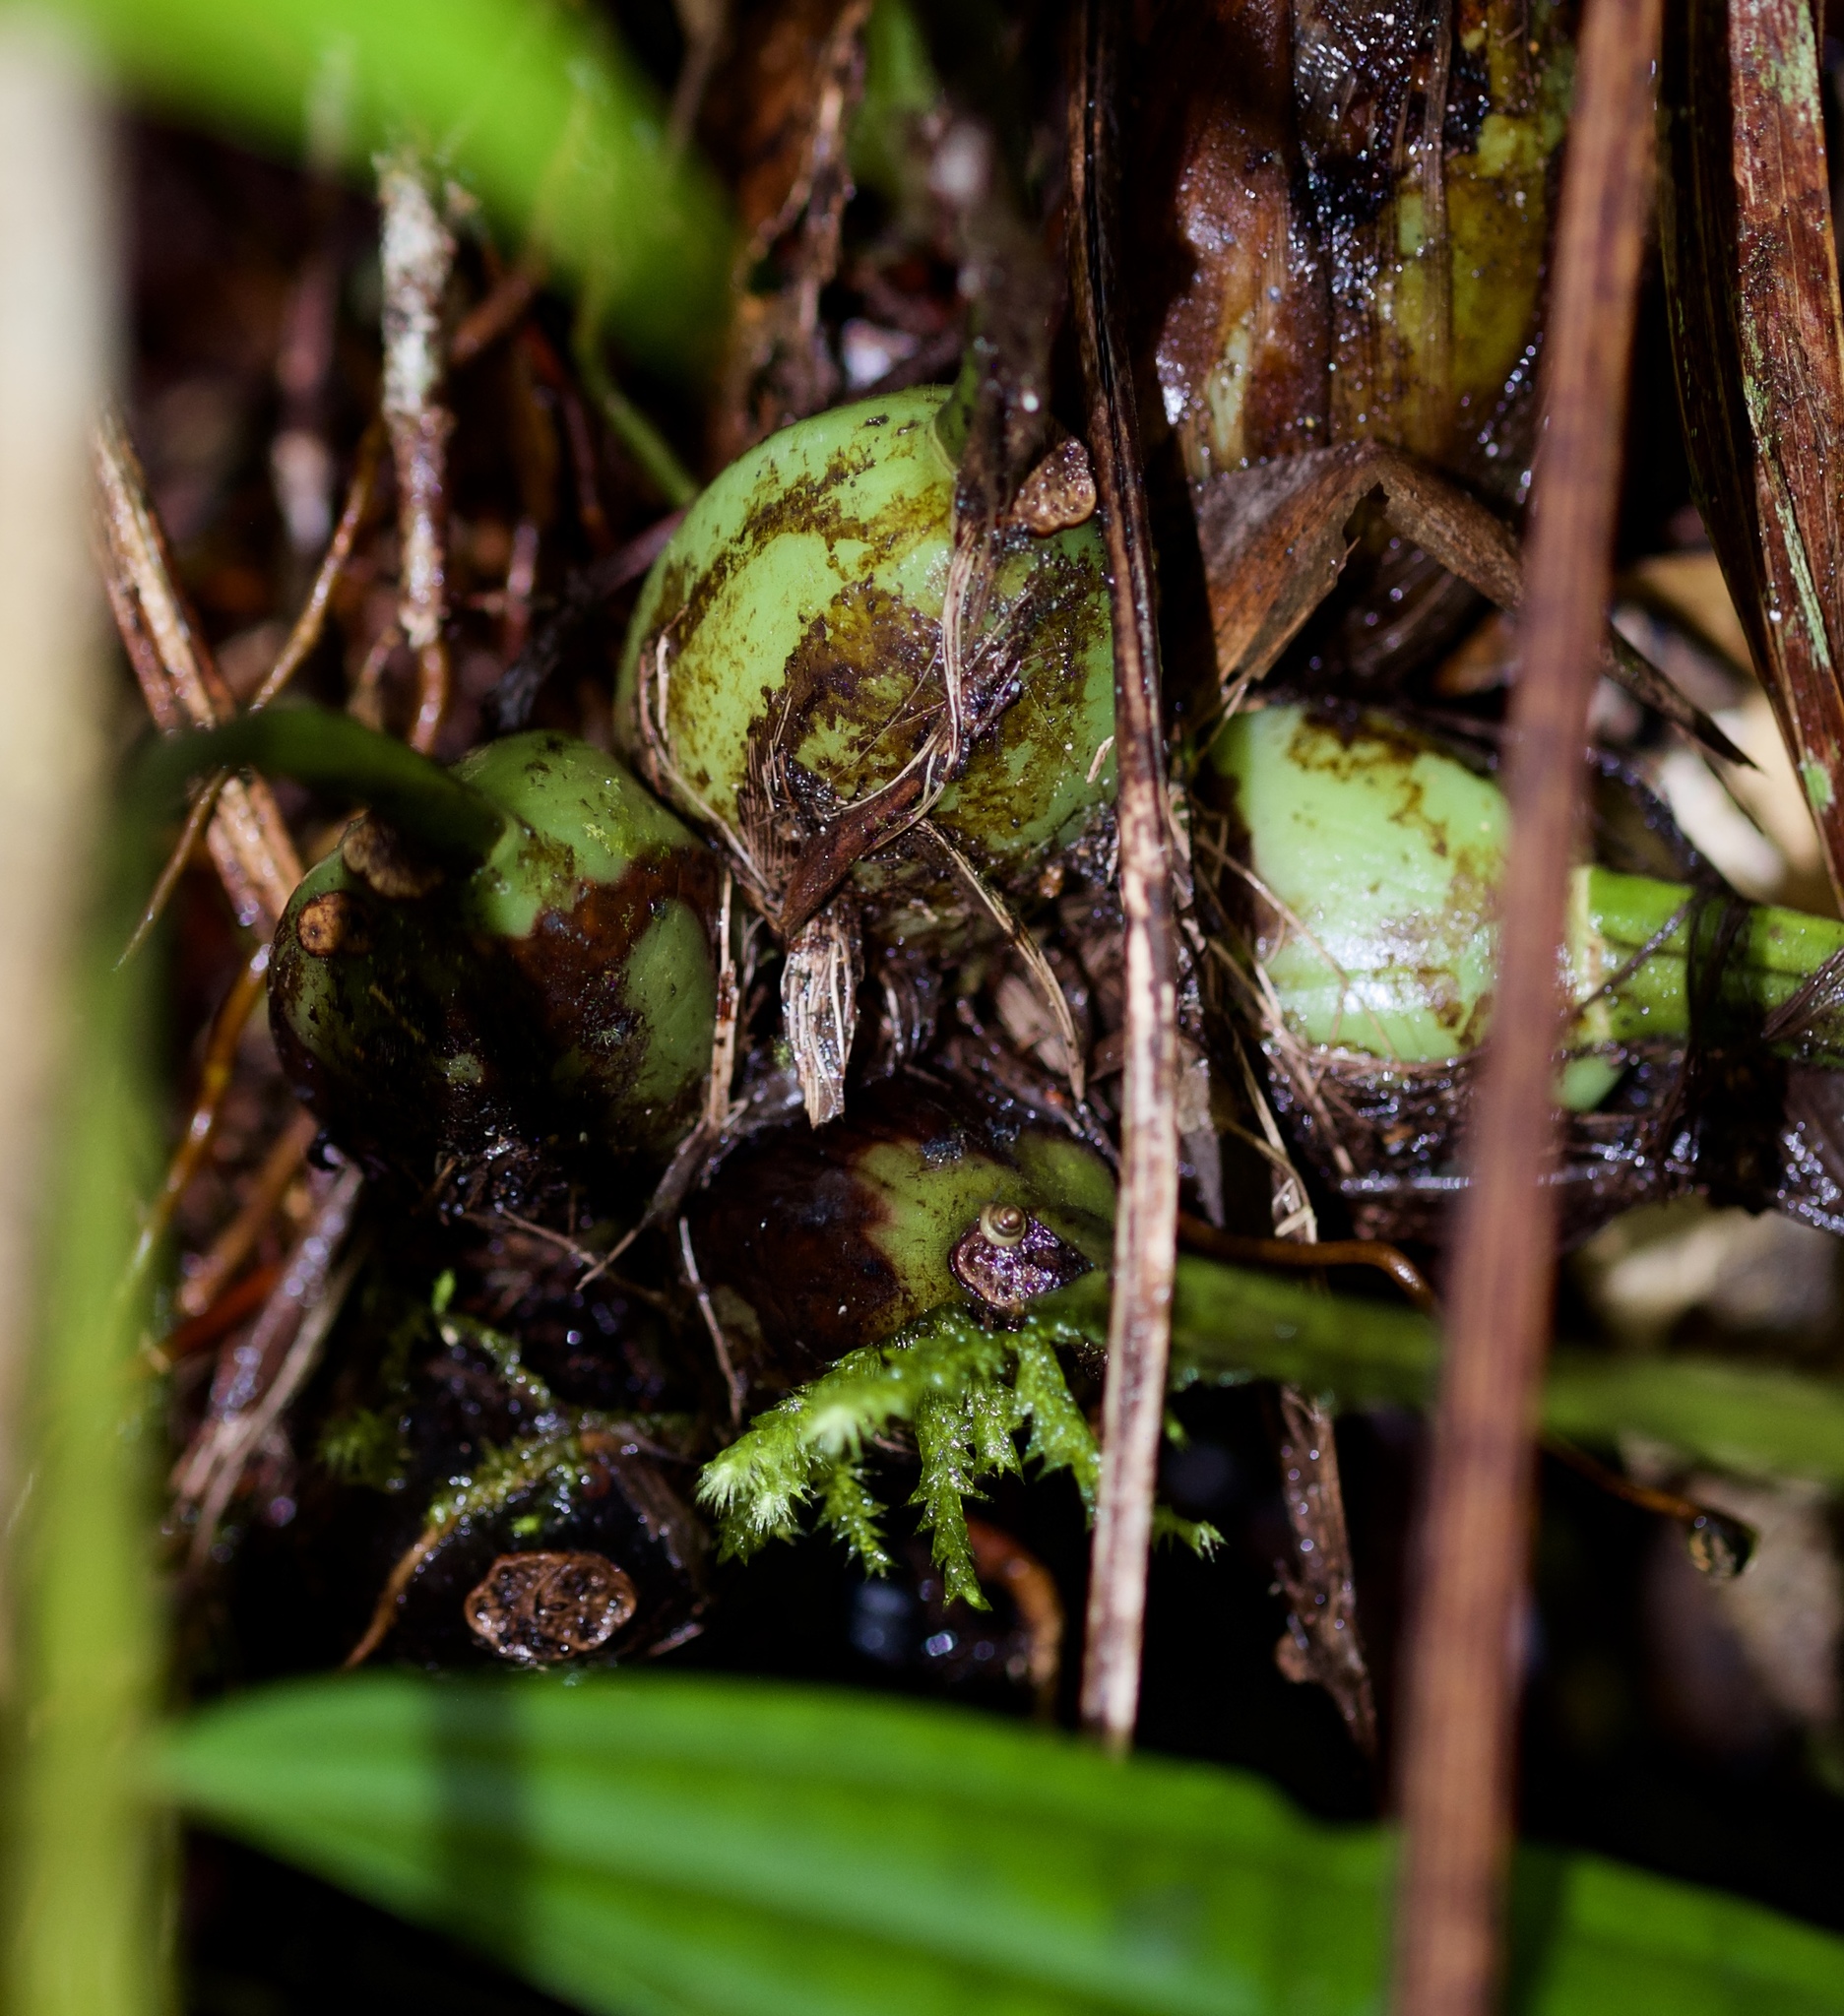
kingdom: Plantae
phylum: Tracheophyta
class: Liliopsida
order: Asparagales
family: Orchidaceae
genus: Coelogyne
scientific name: Coelogyne hirtella
